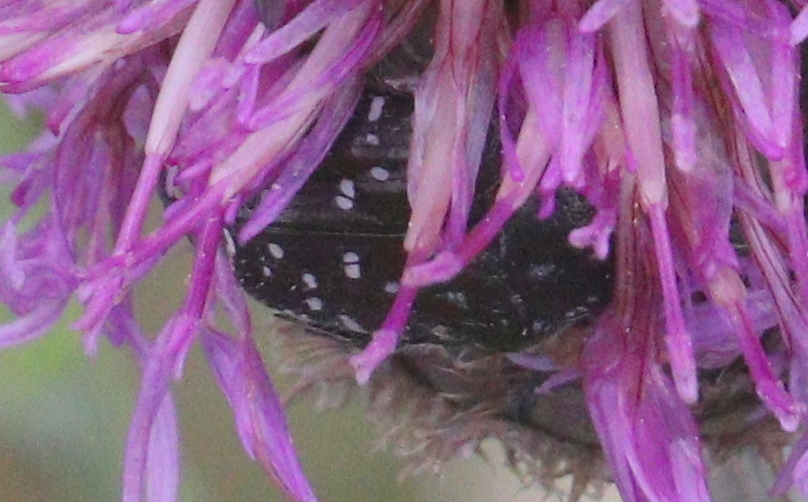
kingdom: Animalia
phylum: Arthropoda
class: Insecta
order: Coleoptera
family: Scarabaeidae
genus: Oxythyrea
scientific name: Oxythyrea funesta
